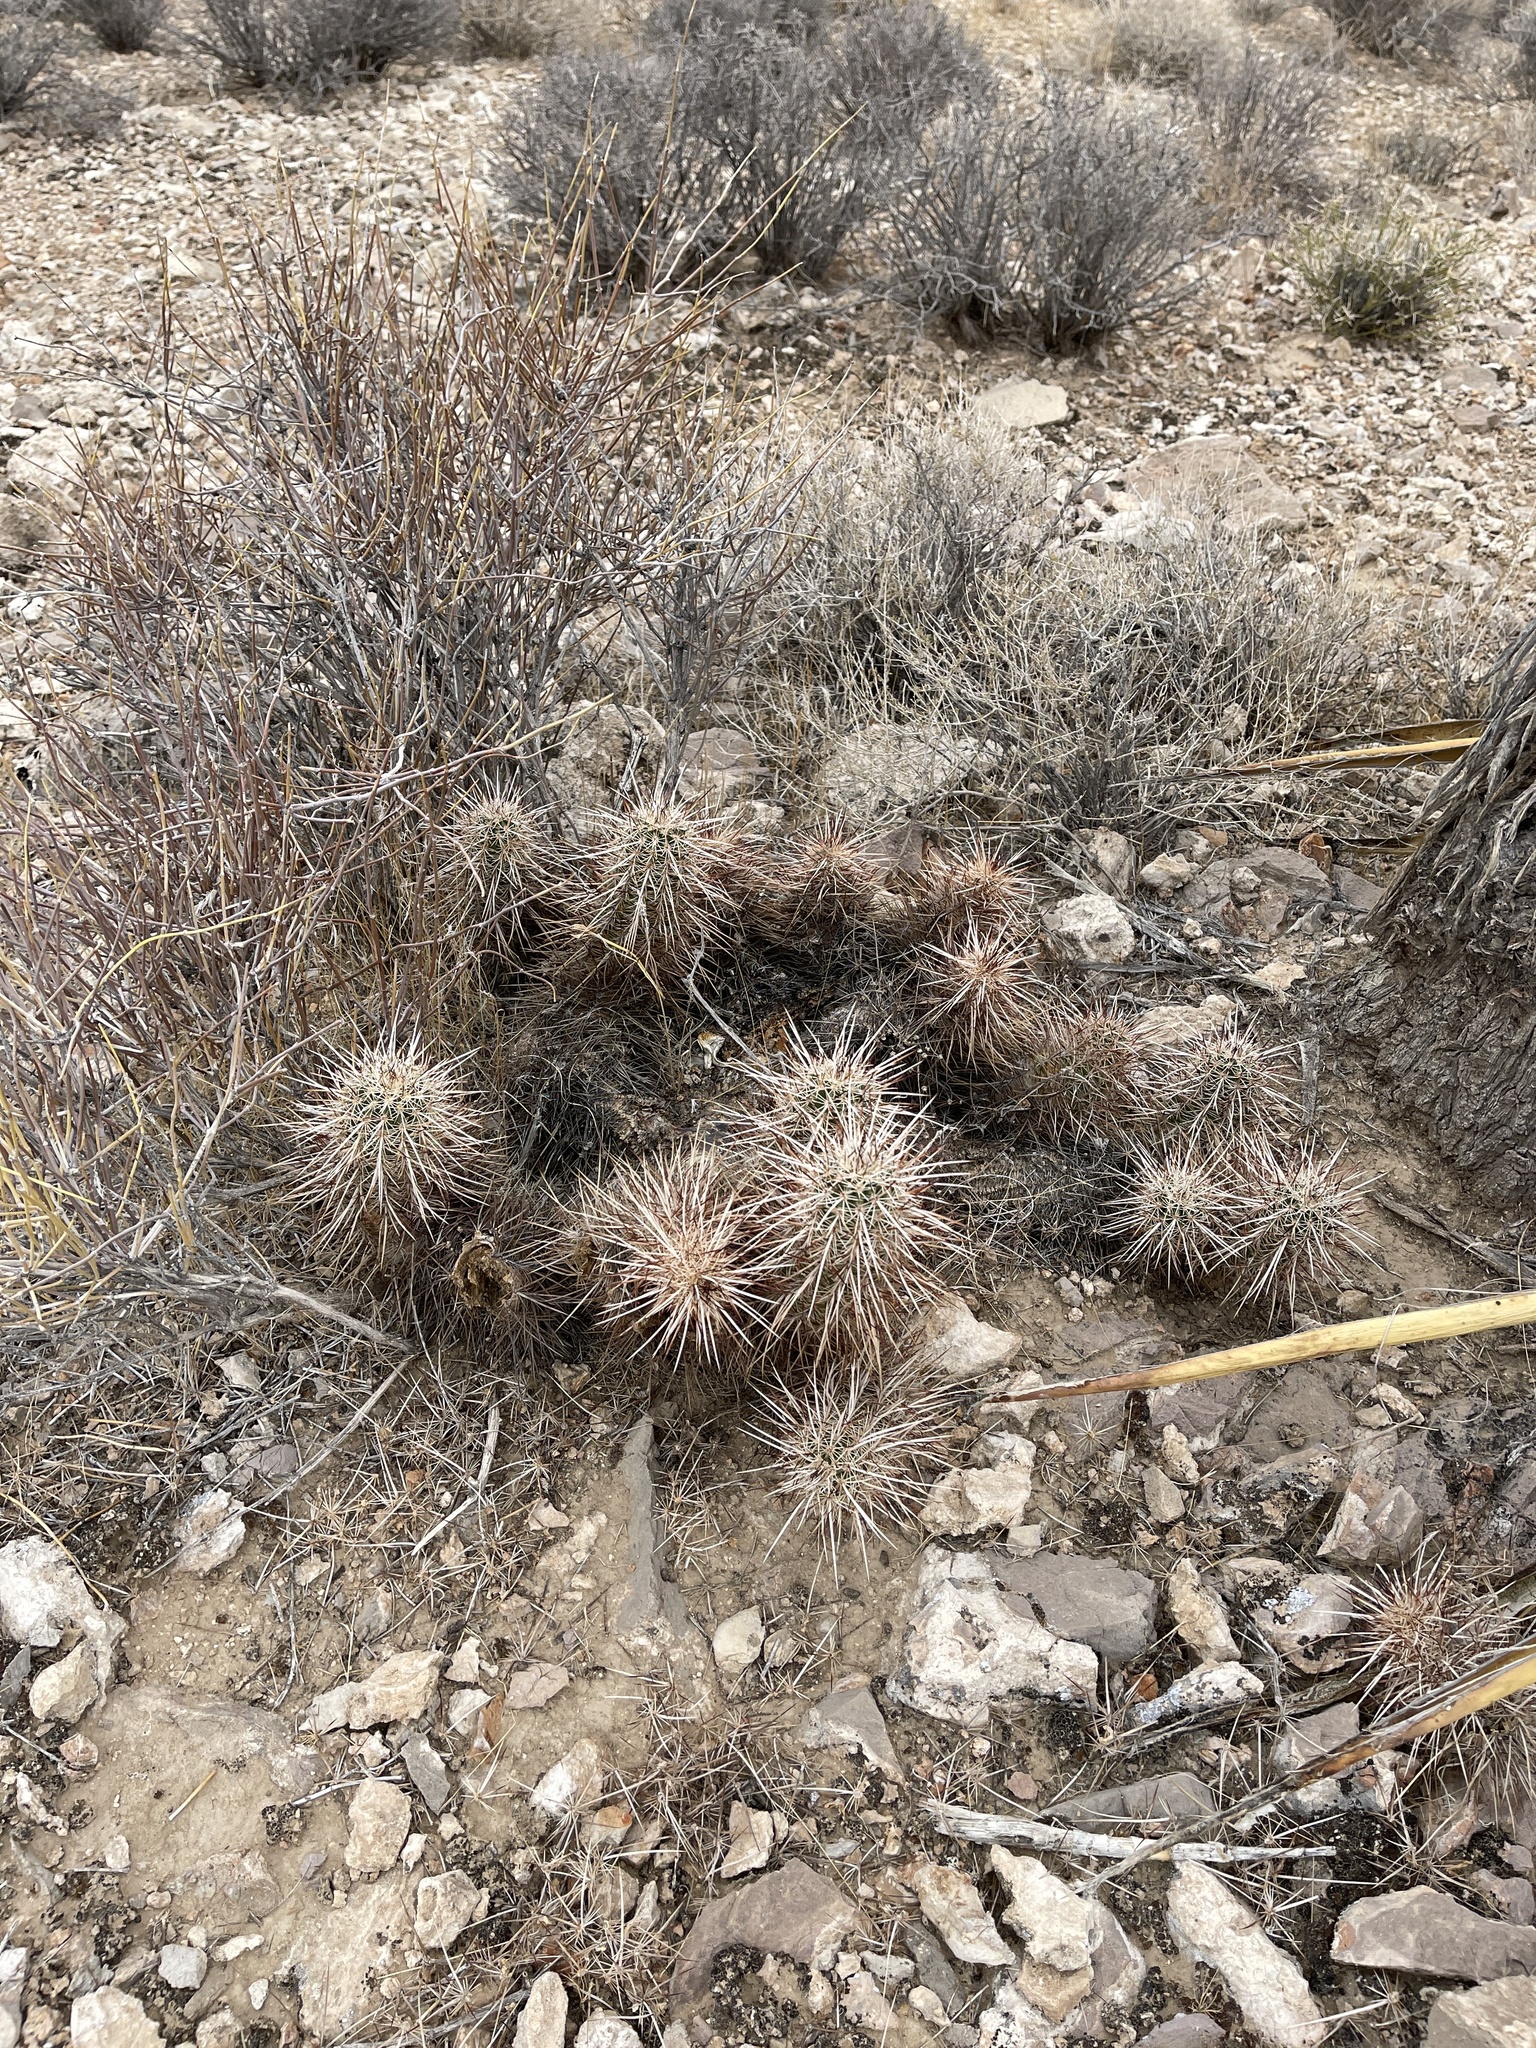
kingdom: Plantae
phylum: Tracheophyta
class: Magnoliopsida
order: Caryophyllales
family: Cactaceae
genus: Echinocereus
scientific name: Echinocereus engelmannii
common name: Engelmann's hedgehog cactus
